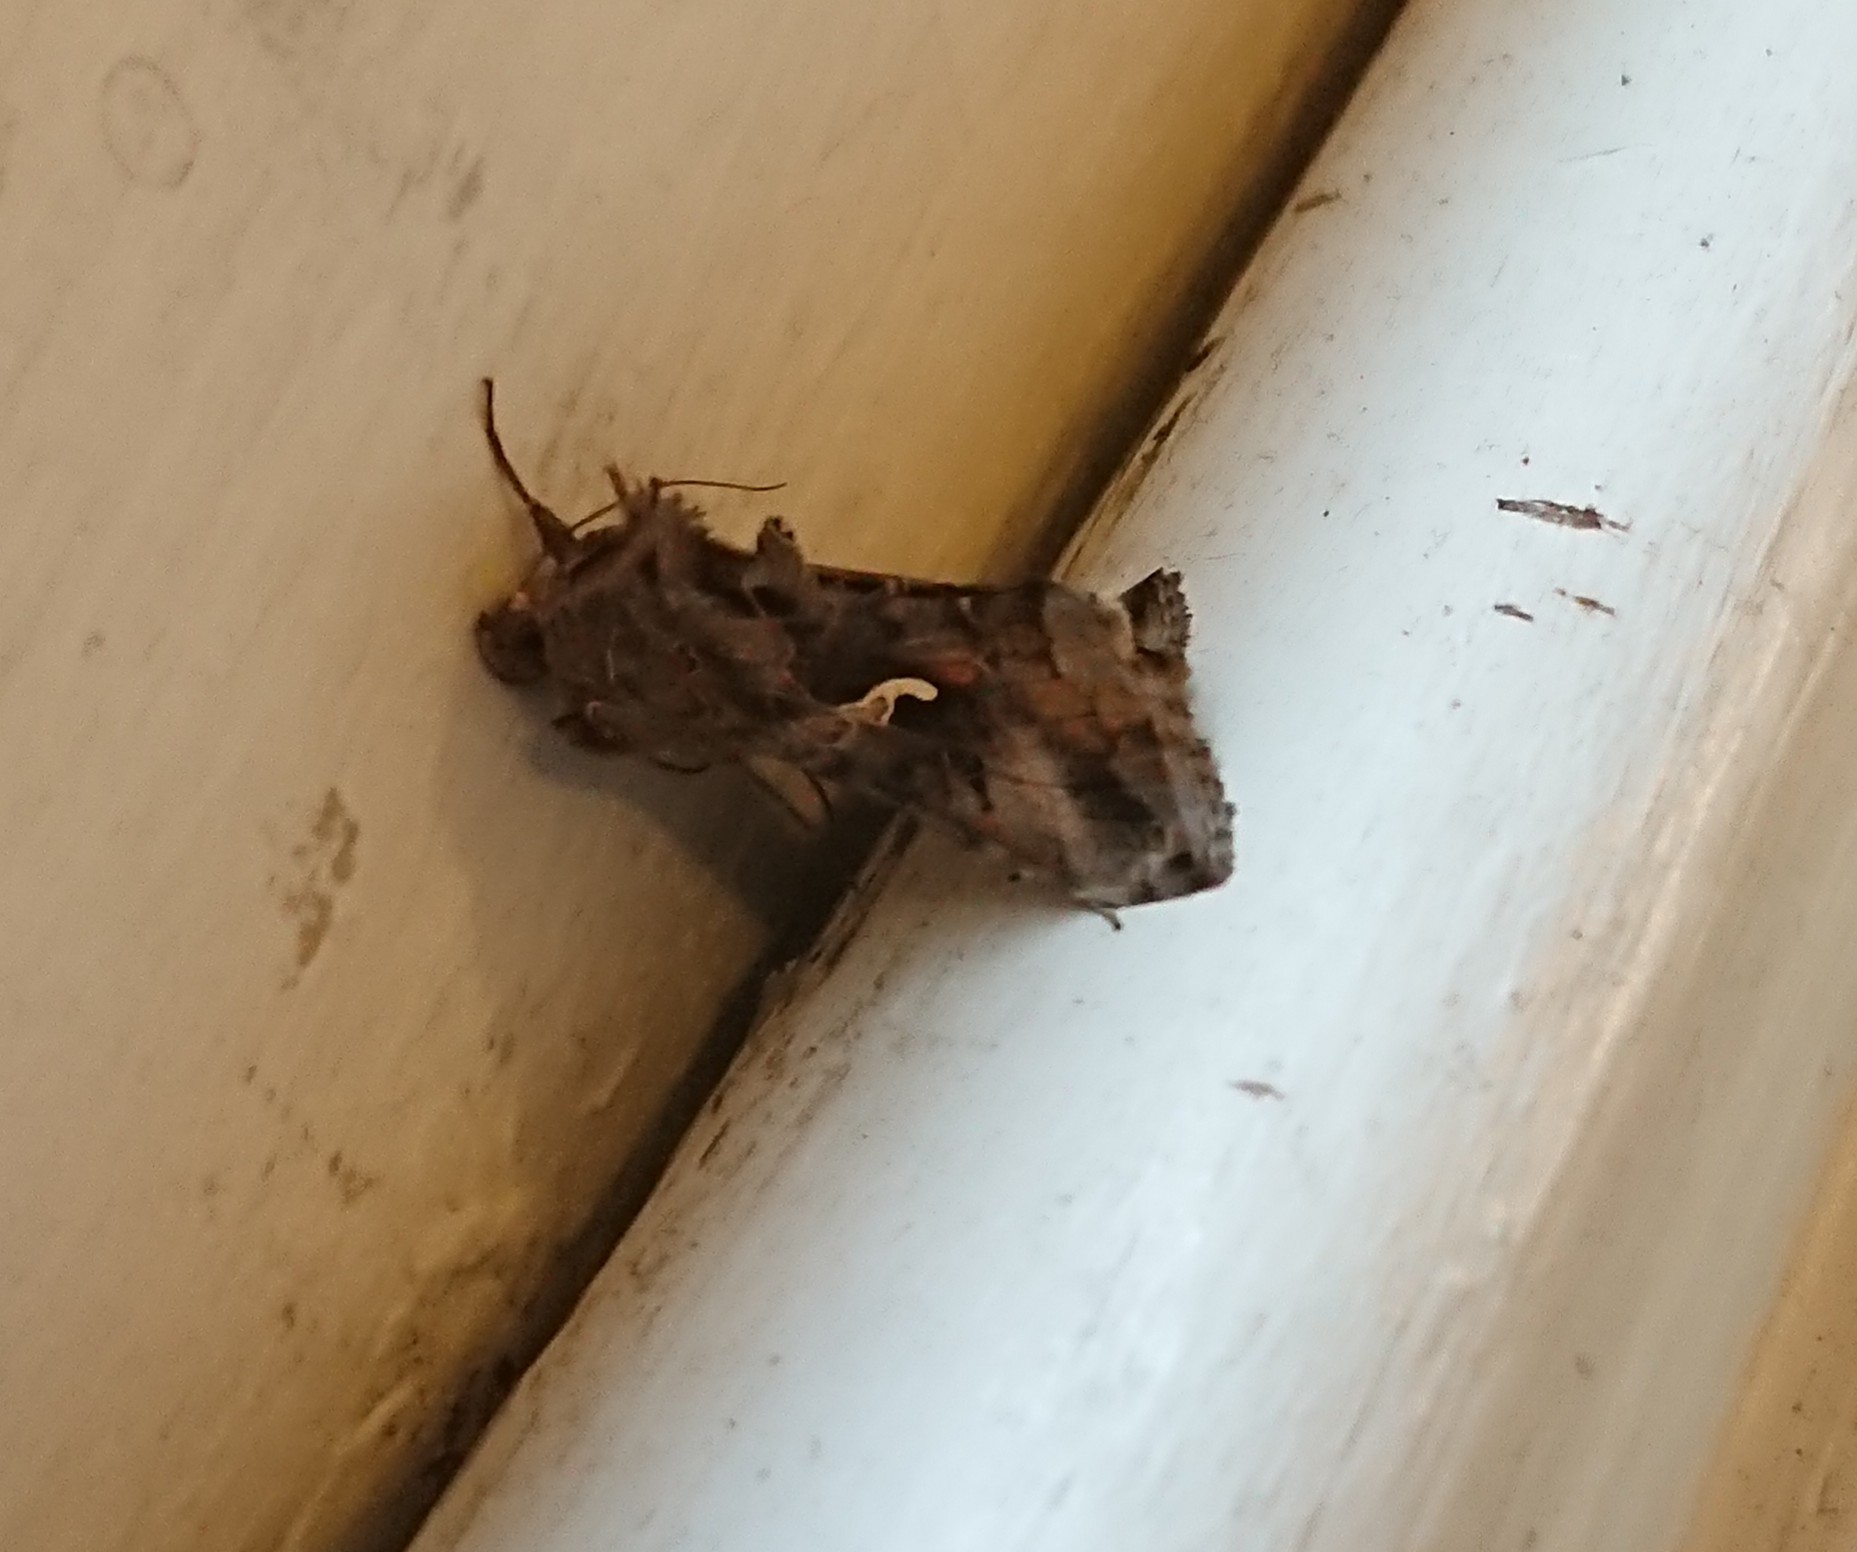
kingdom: Animalia
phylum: Arthropoda
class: Insecta
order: Lepidoptera
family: Noctuidae
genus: Autographa
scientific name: Autographa gamma
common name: Silver y
